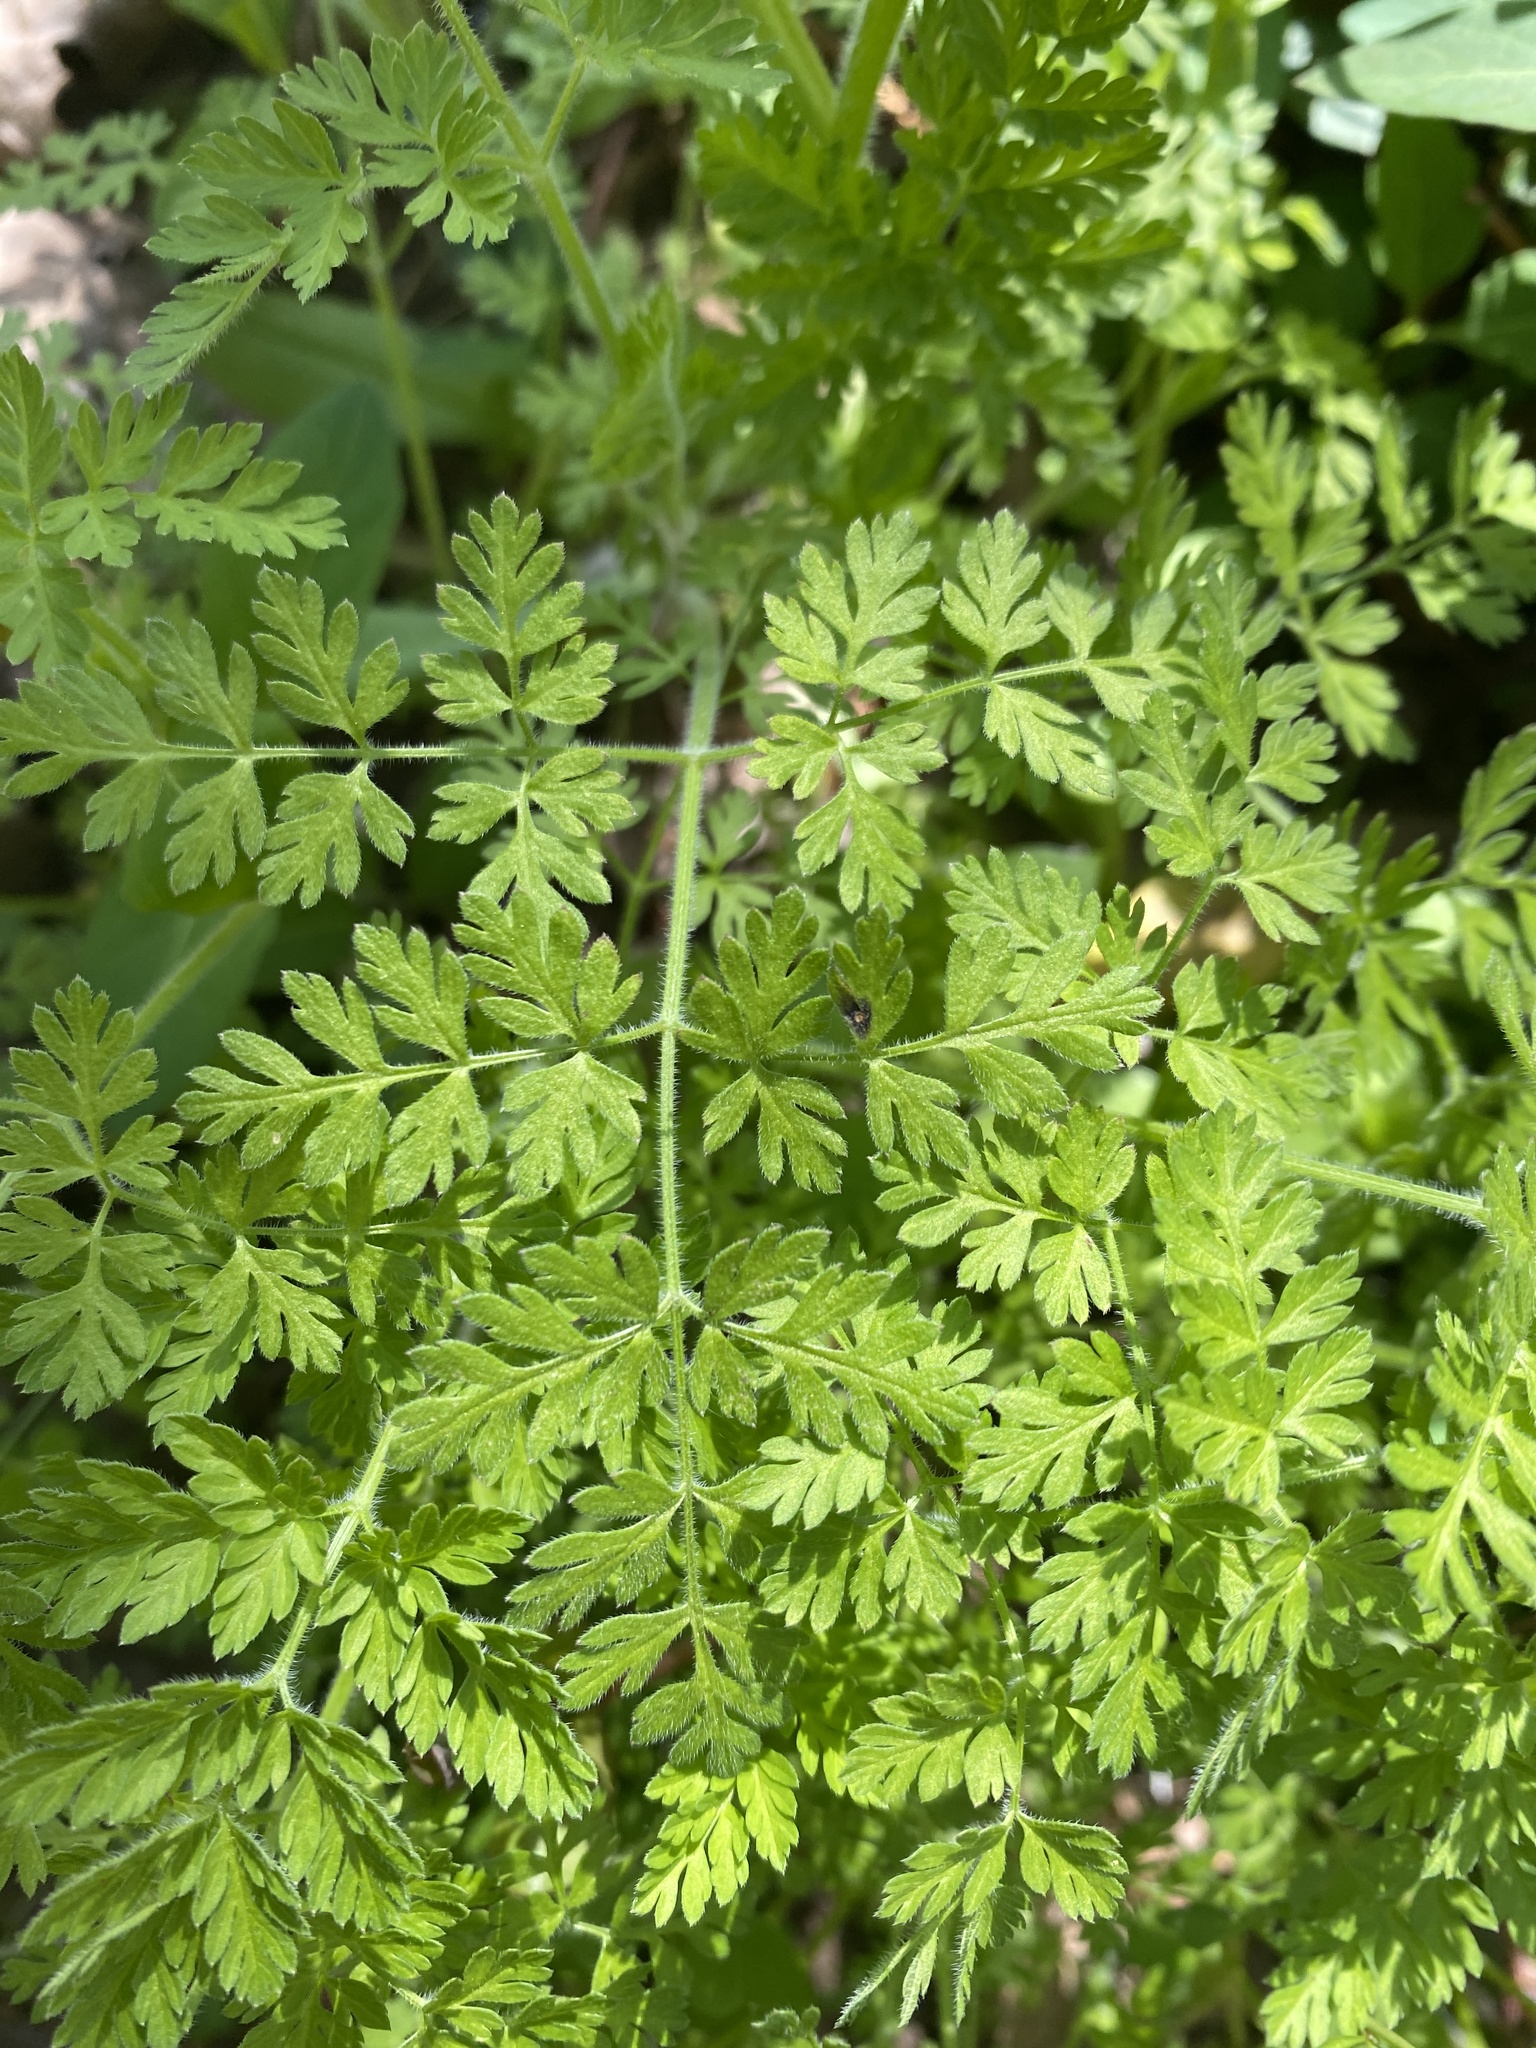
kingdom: Plantae
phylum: Tracheophyta
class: Magnoliopsida
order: Apiales
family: Apiaceae
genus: Chaerophyllum
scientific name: Chaerophyllum tainturieri
